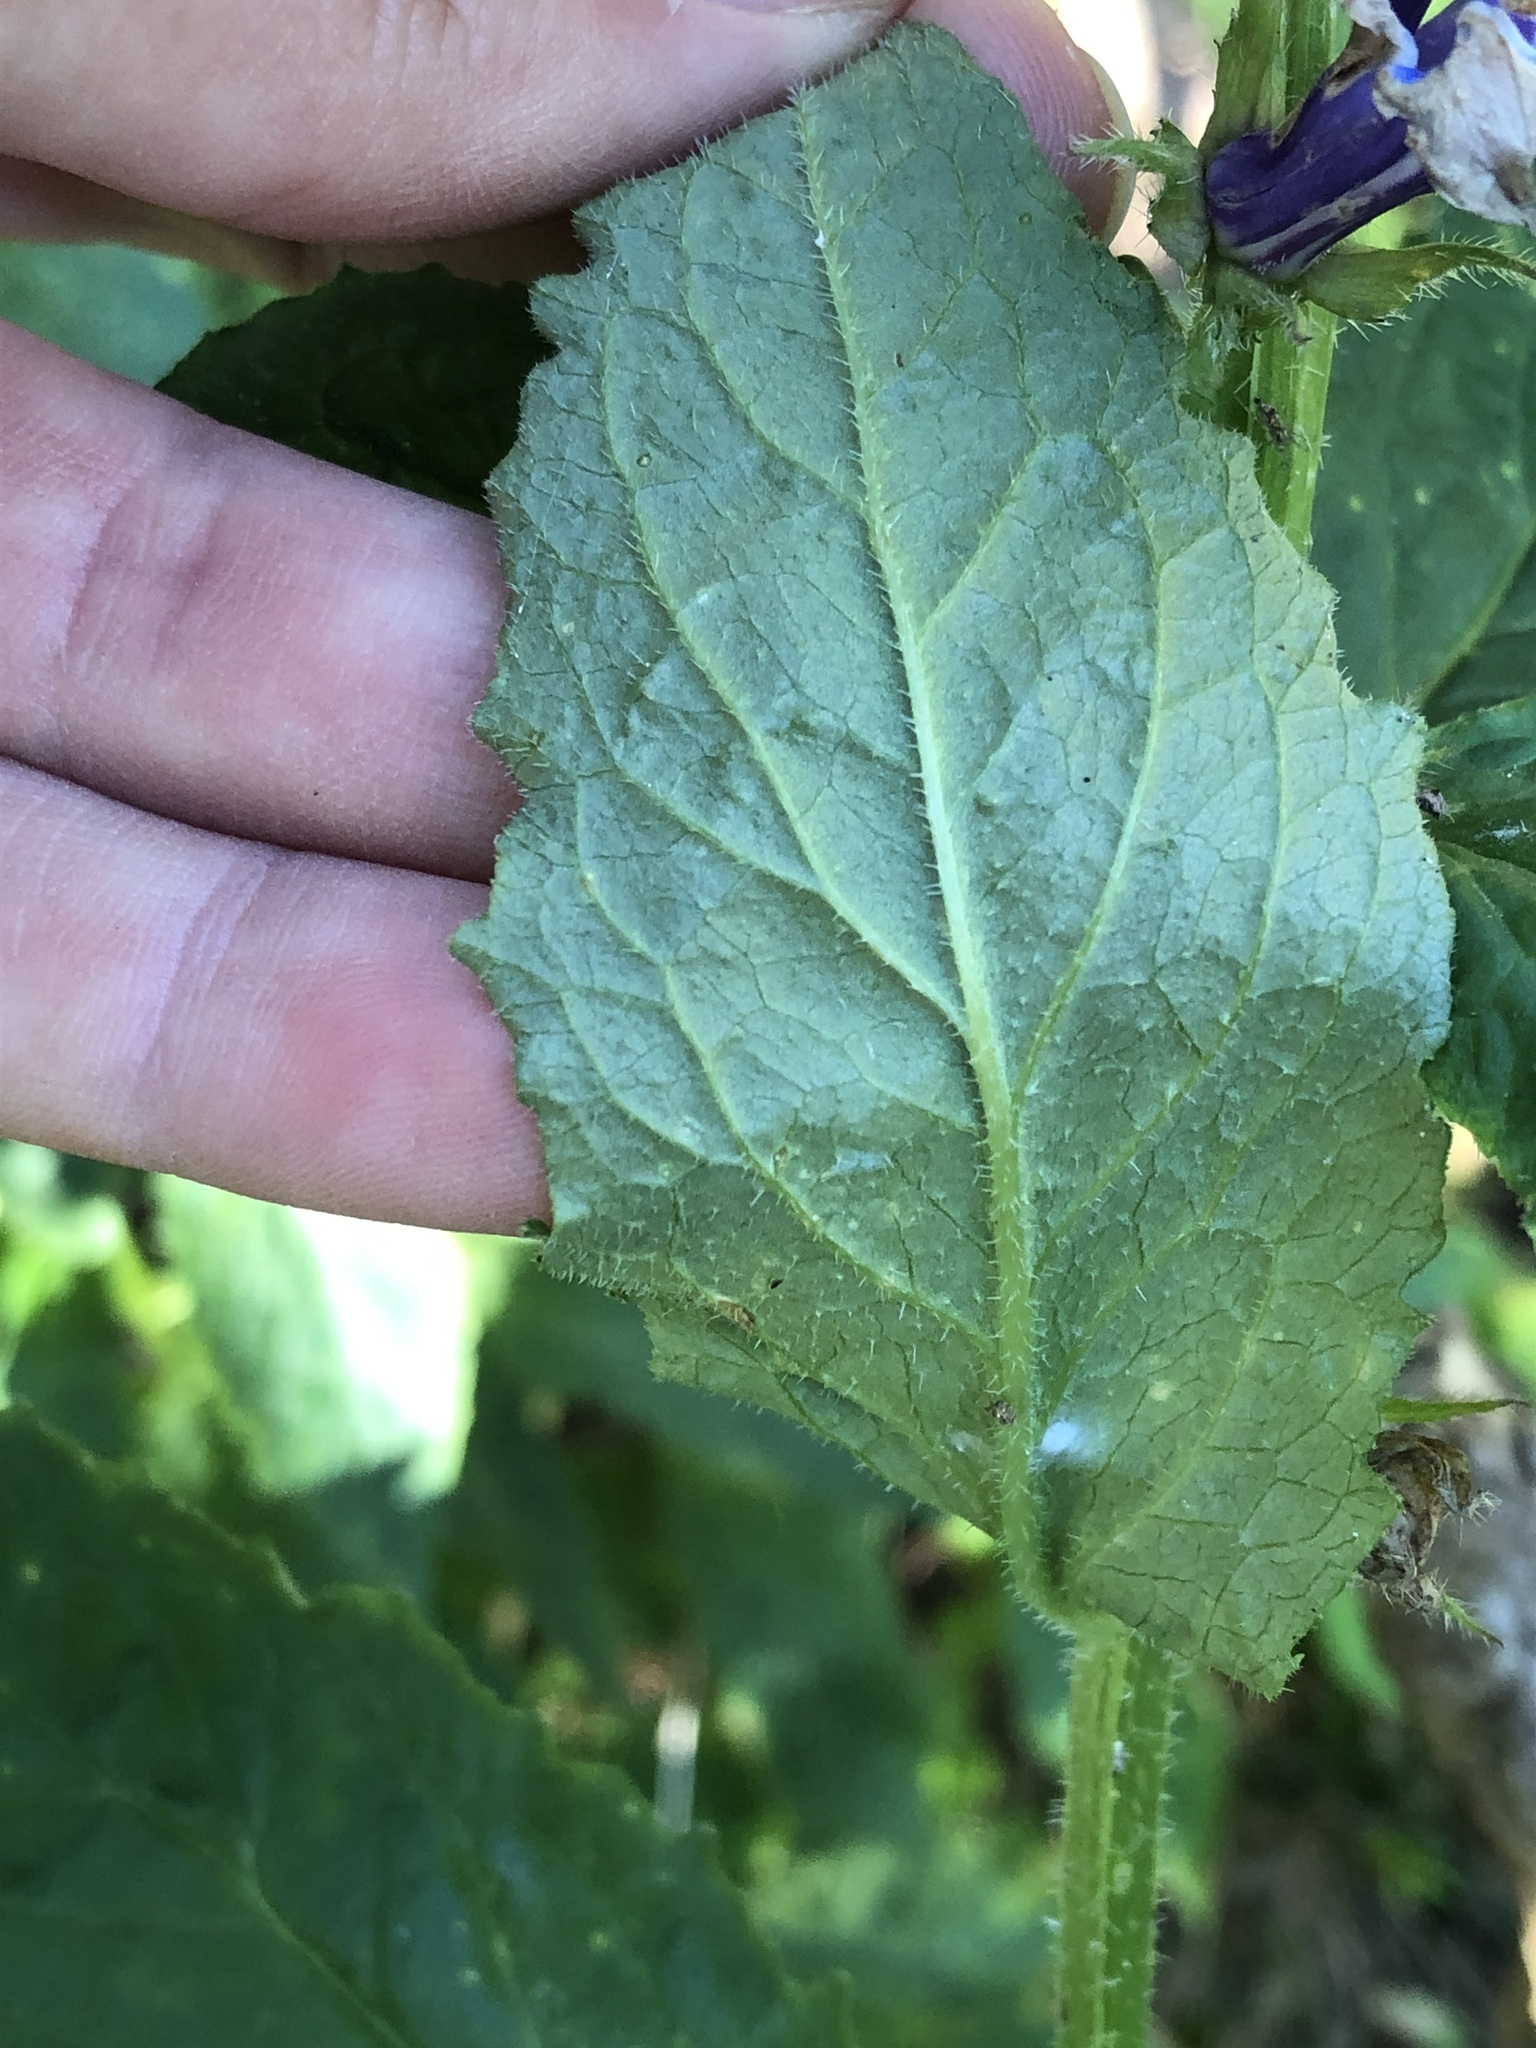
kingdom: Plantae
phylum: Tracheophyta
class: Magnoliopsida
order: Asterales
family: Campanulaceae
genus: Lobelia
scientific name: Lobelia siphilitica
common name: Great lobelia
